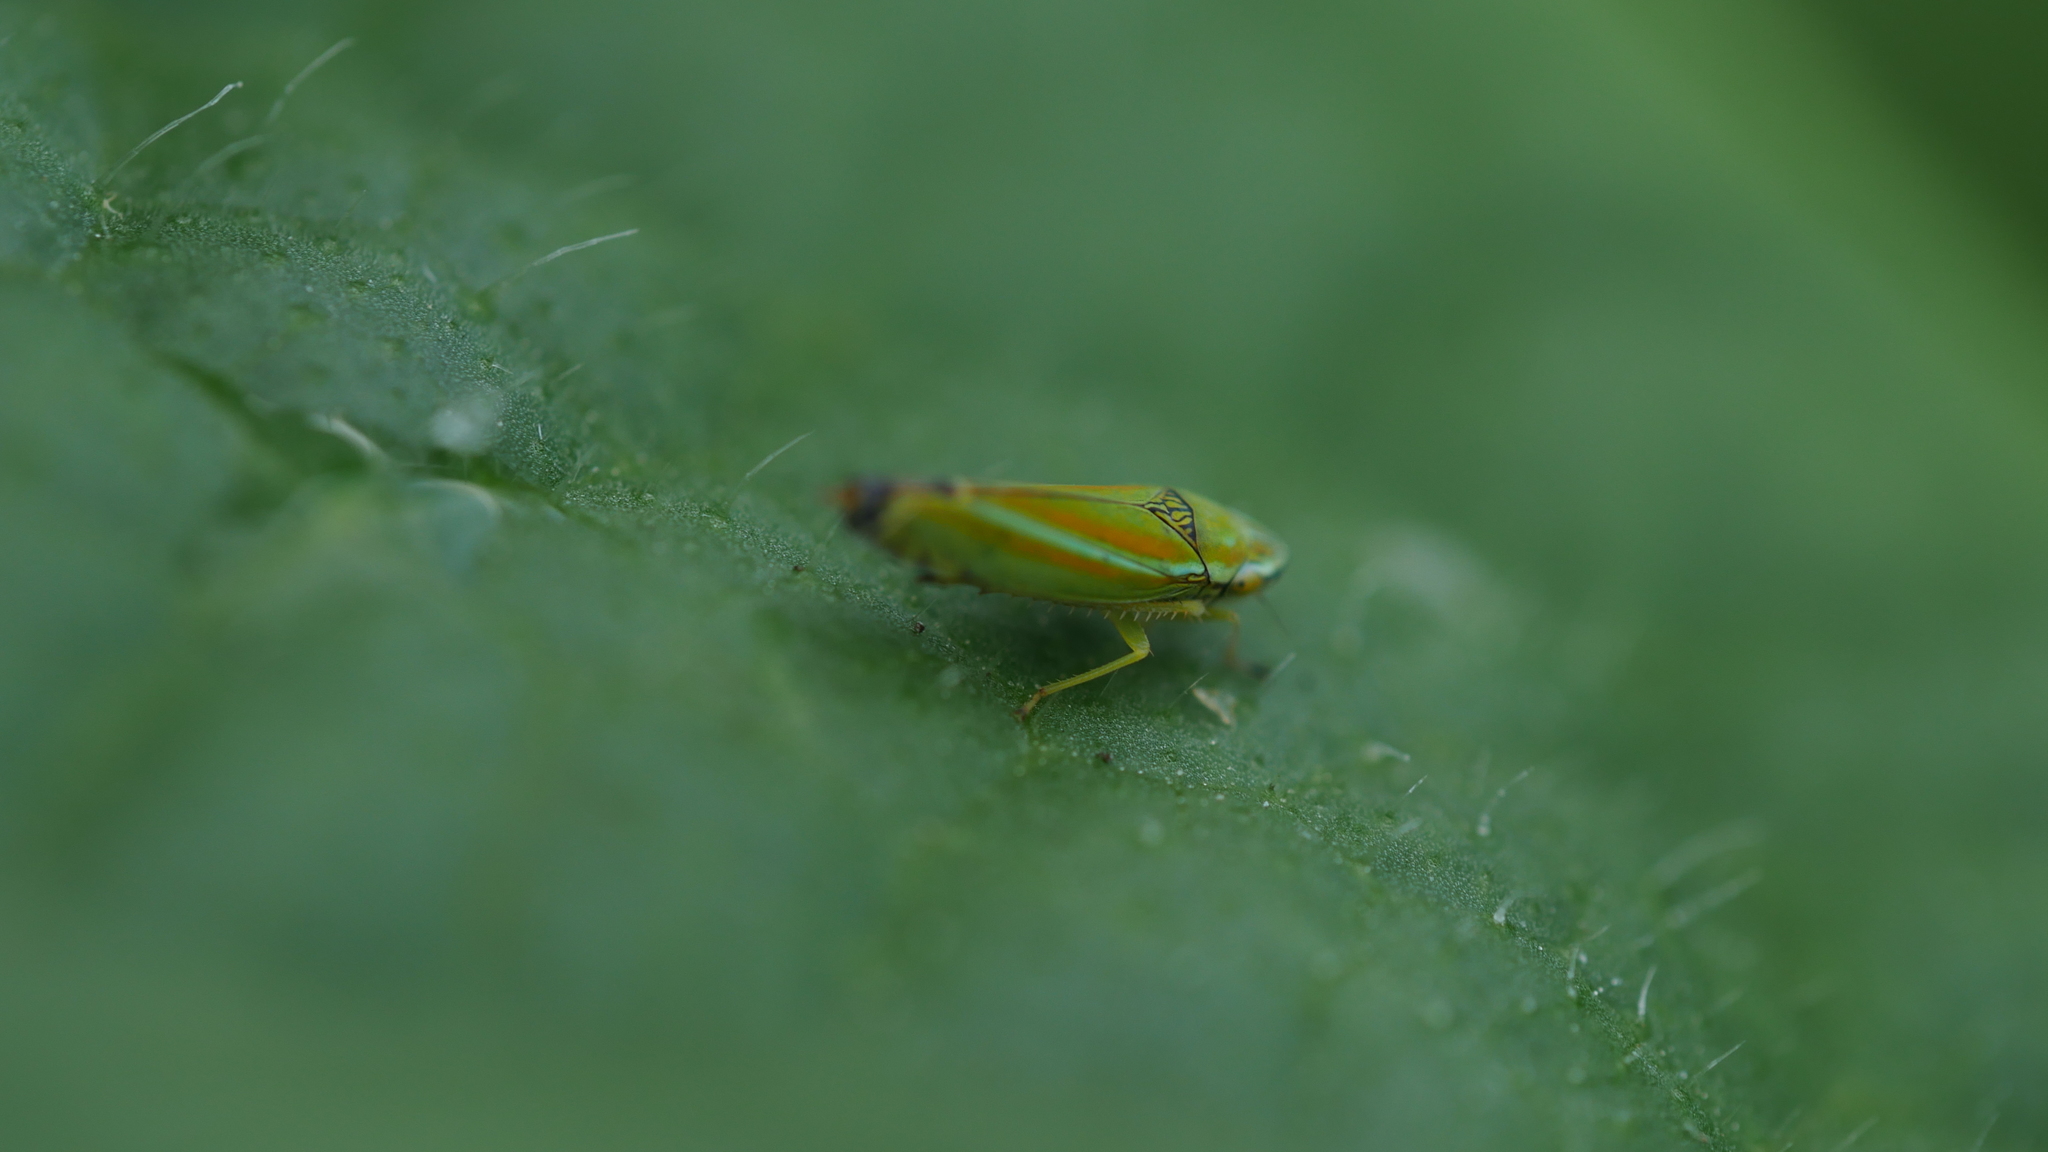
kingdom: Animalia
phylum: Arthropoda
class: Insecta
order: Hemiptera
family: Cicadellidae
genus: Graphocephala
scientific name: Graphocephala versuta
